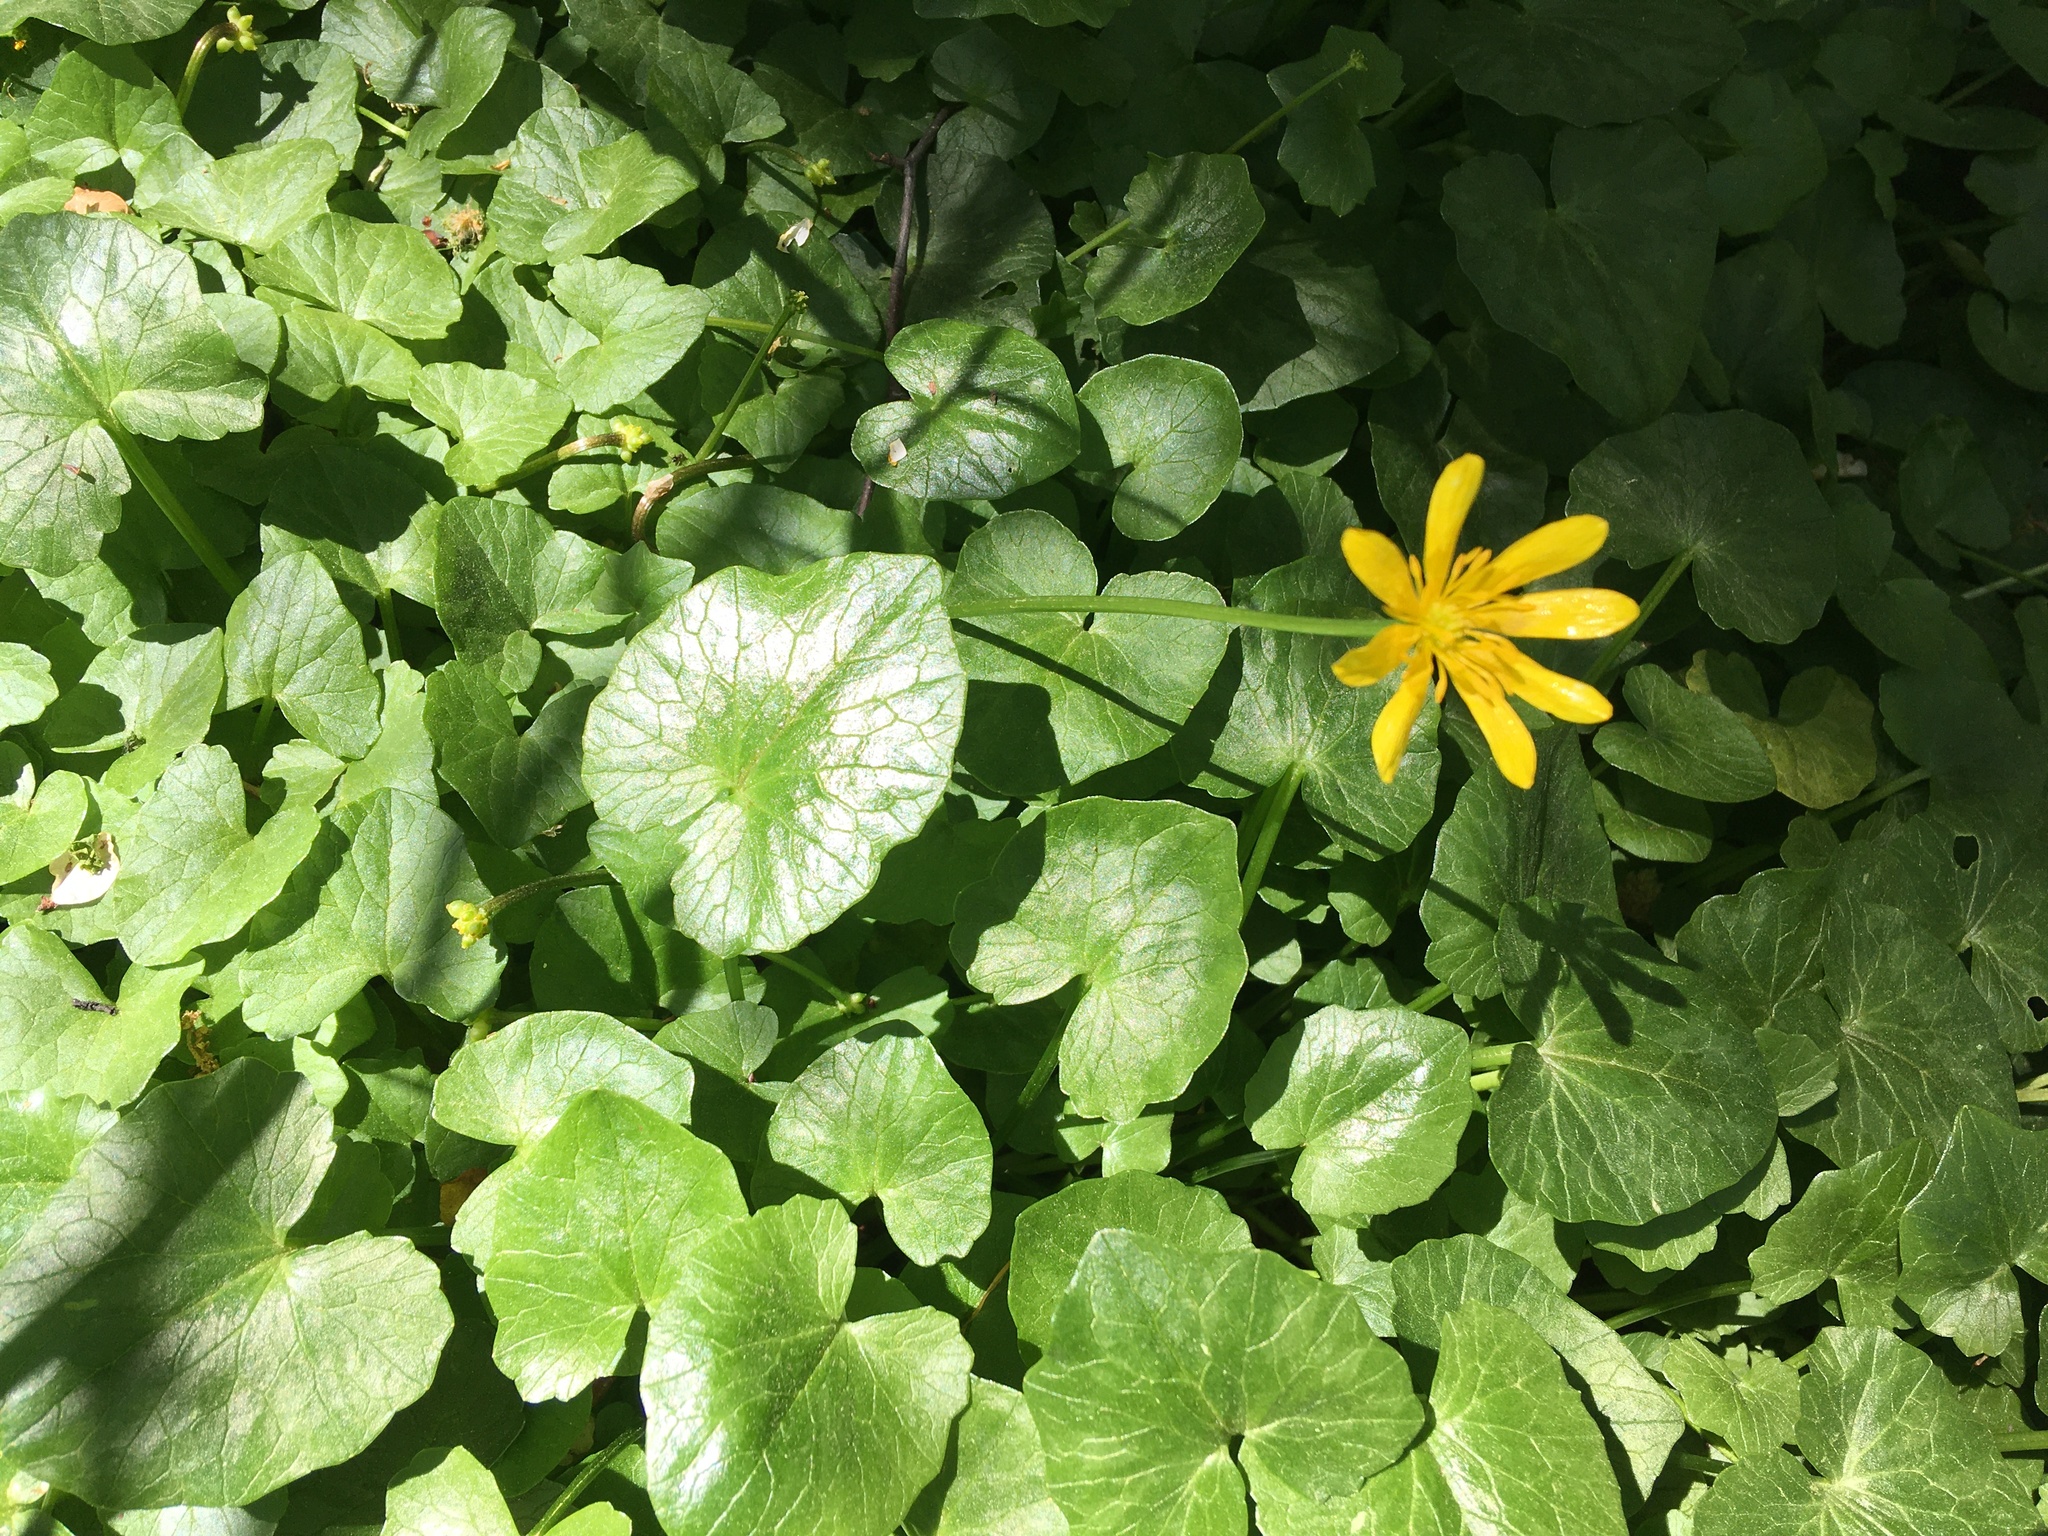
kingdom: Plantae
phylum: Tracheophyta
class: Magnoliopsida
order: Ranunculales
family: Ranunculaceae
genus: Ficaria
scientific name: Ficaria verna
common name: Lesser celandine
